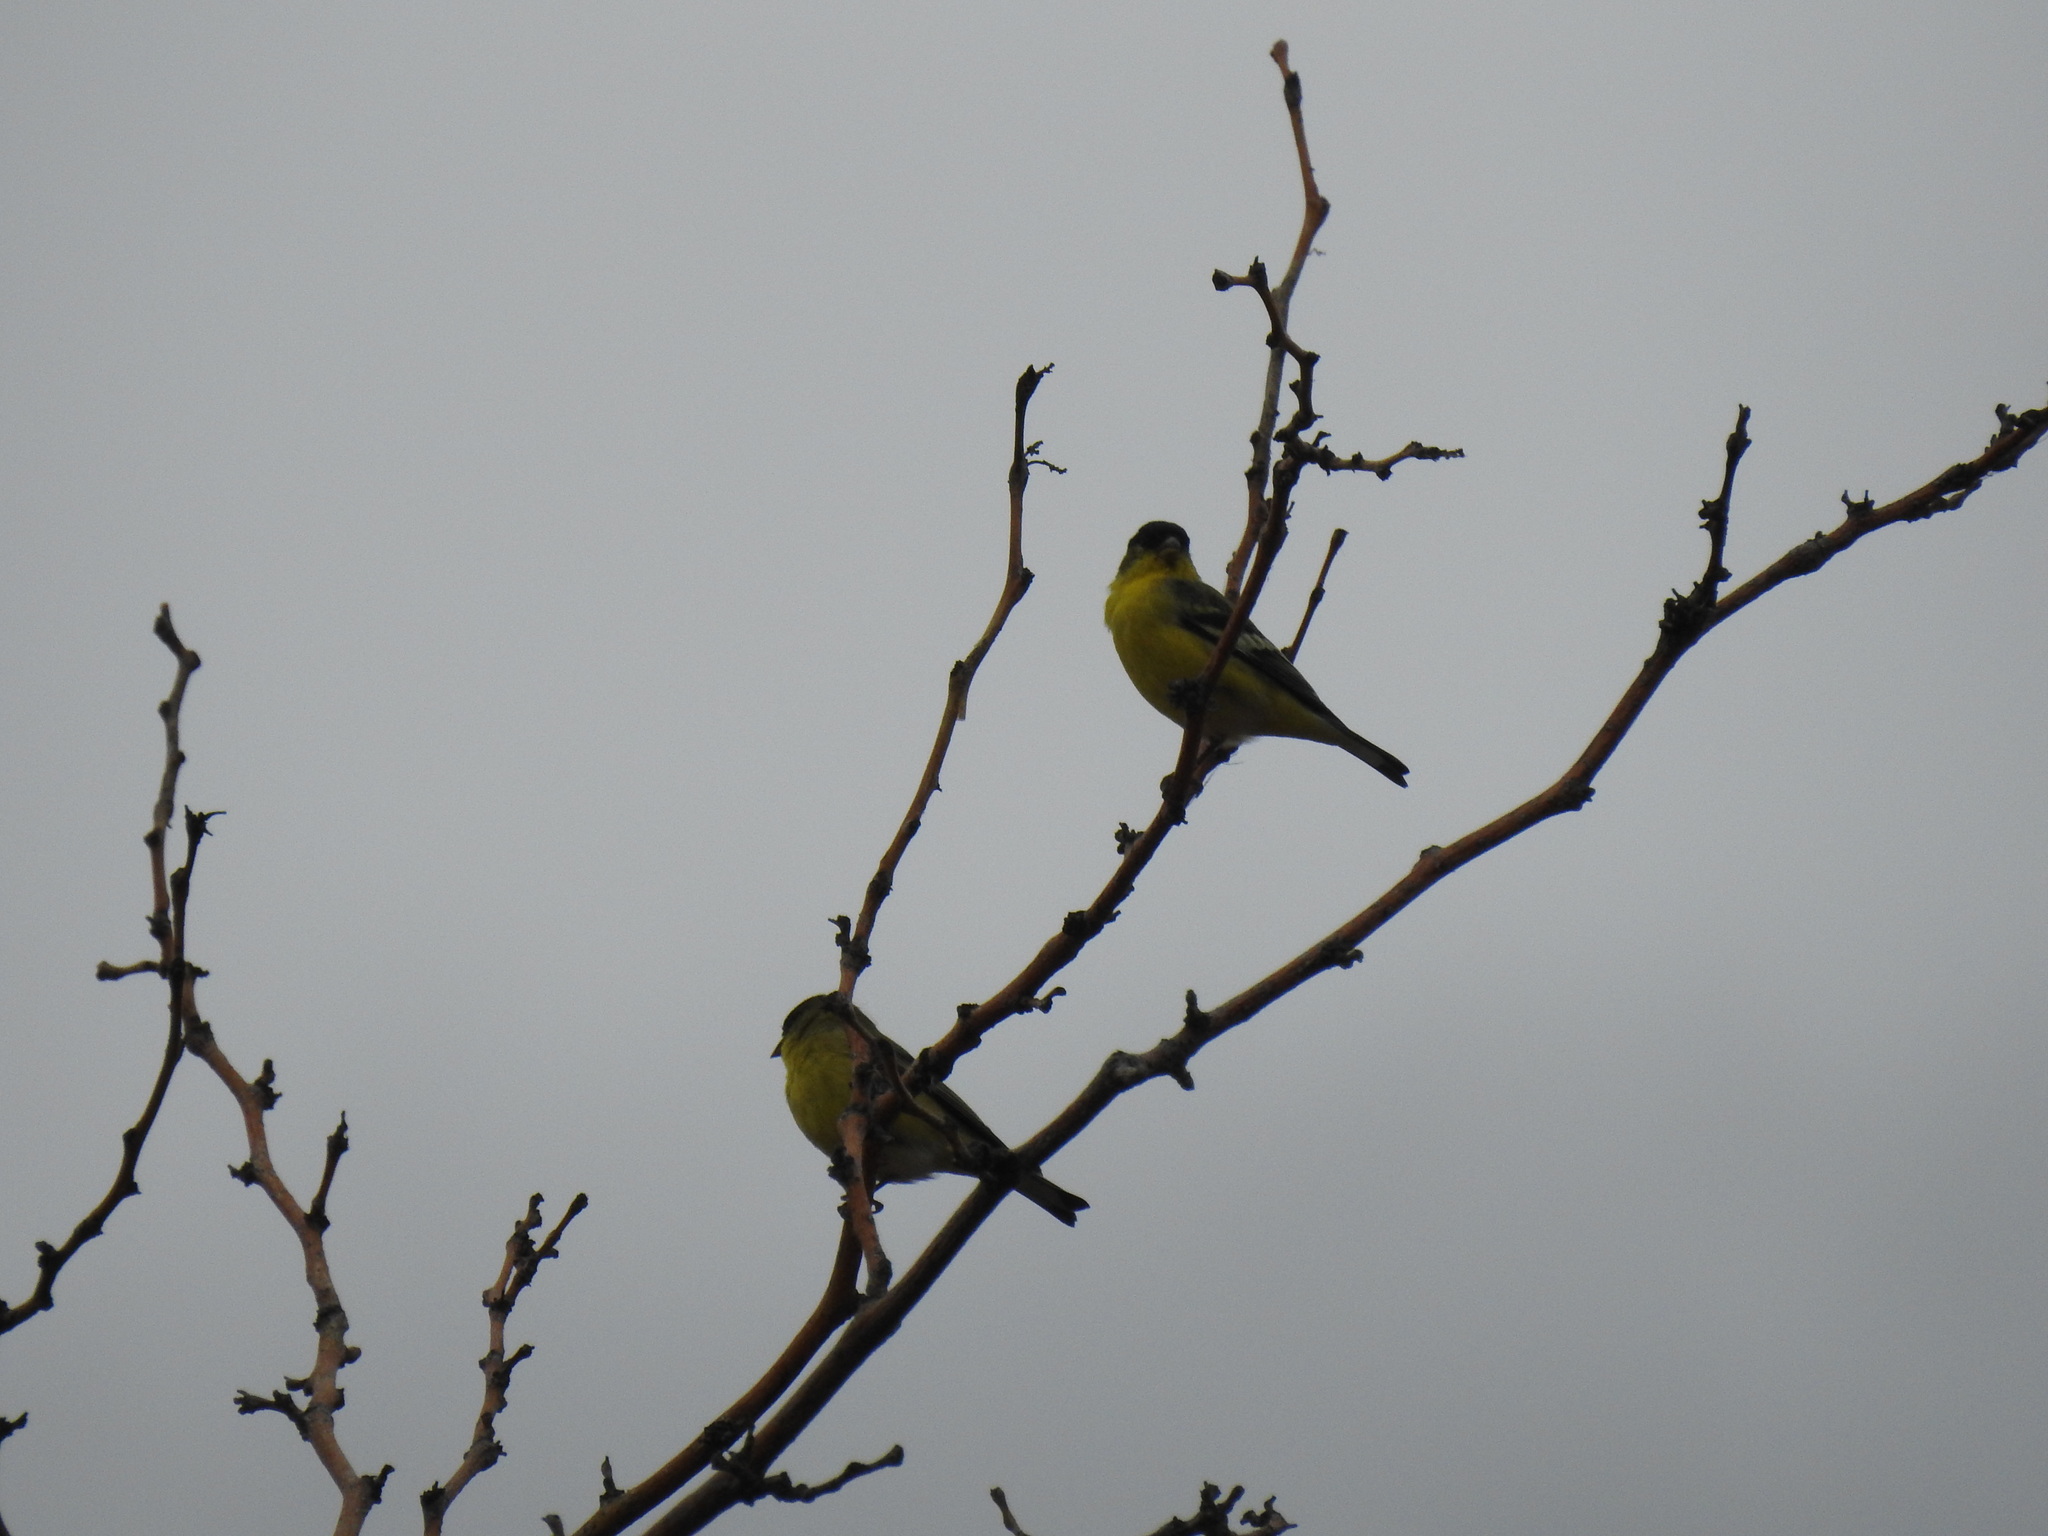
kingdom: Animalia
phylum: Chordata
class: Aves
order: Passeriformes
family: Fringillidae
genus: Spinus
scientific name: Spinus psaltria
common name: Lesser goldfinch
